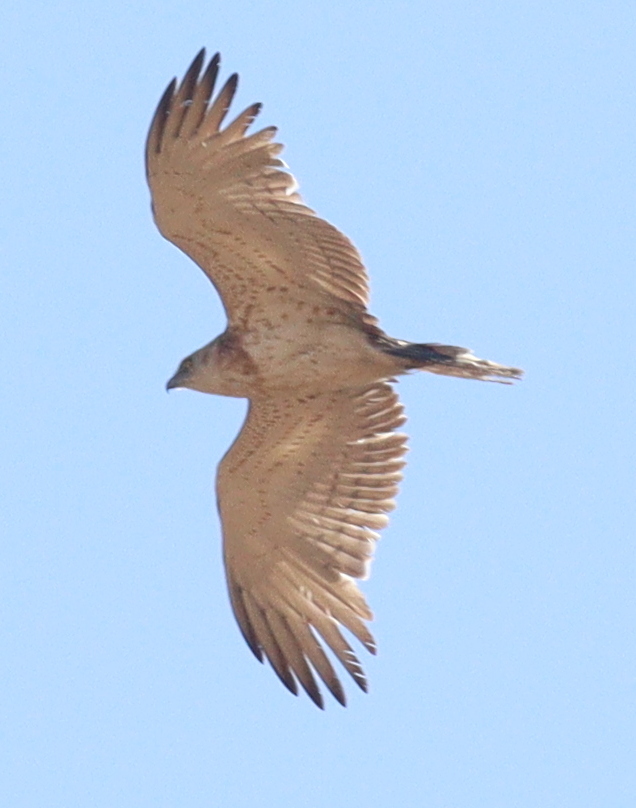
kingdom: Animalia
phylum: Chordata
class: Aves
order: Accipitriformes
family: Accipitridae
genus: Circaetus
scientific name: Circaetus gallicus
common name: Short-toed snake eagle
